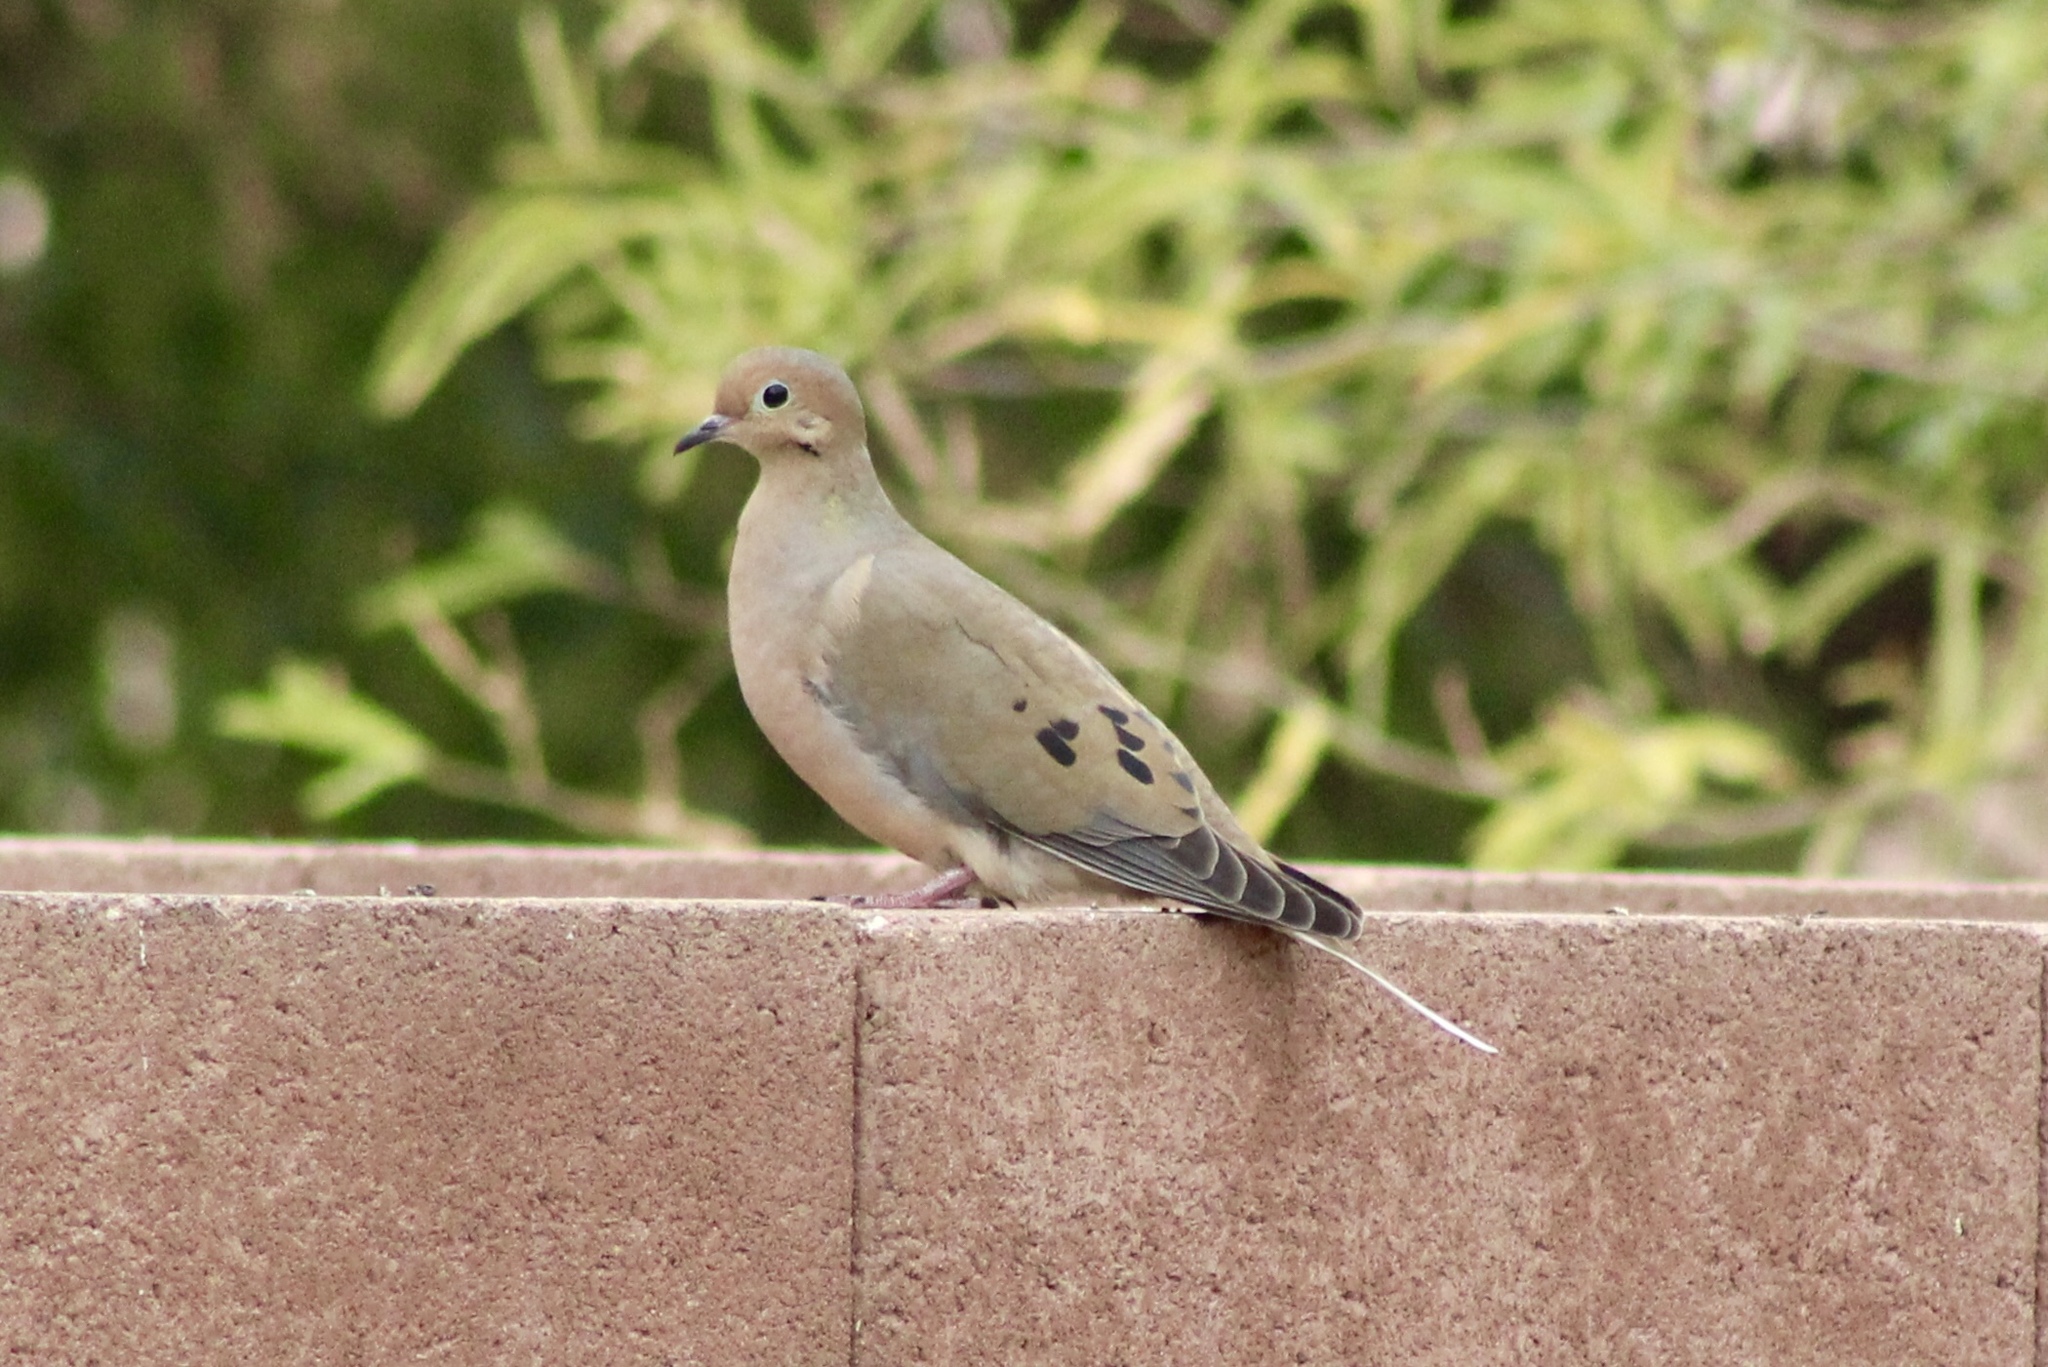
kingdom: Animalia
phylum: Chordata
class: Aves
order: Columbiformes
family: Columbidae
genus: Zenaida
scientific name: Zenaida macroura
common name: Mourning dove
